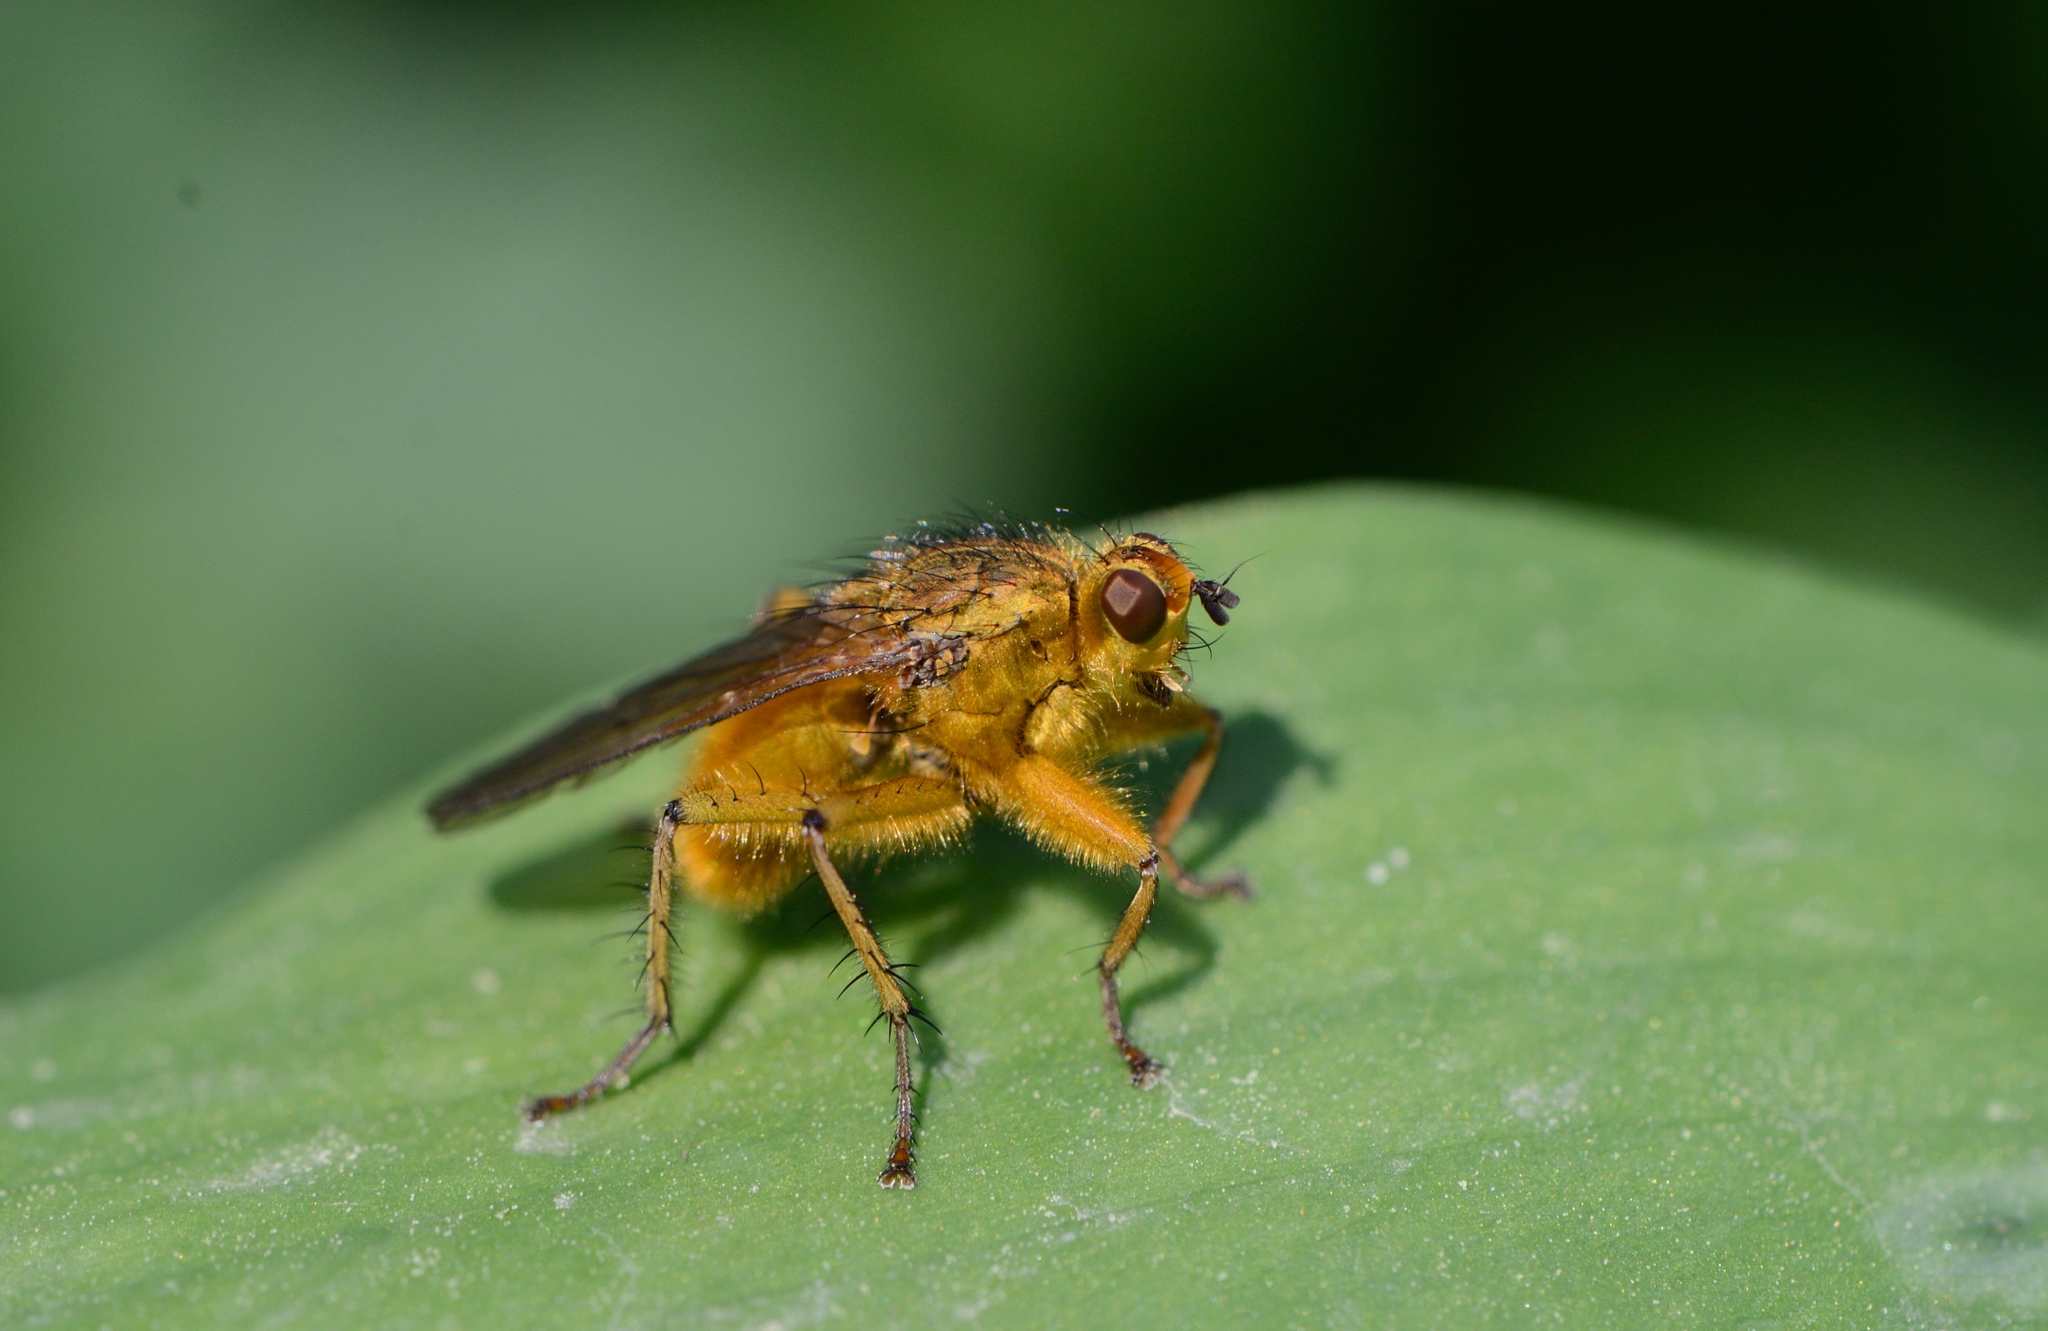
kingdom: Animalia
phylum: Arthropoda
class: Insecta
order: Diptera
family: Scathophagidae
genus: Scathophaga
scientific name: Scathophaga stercoraria
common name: Yellow dung fly
